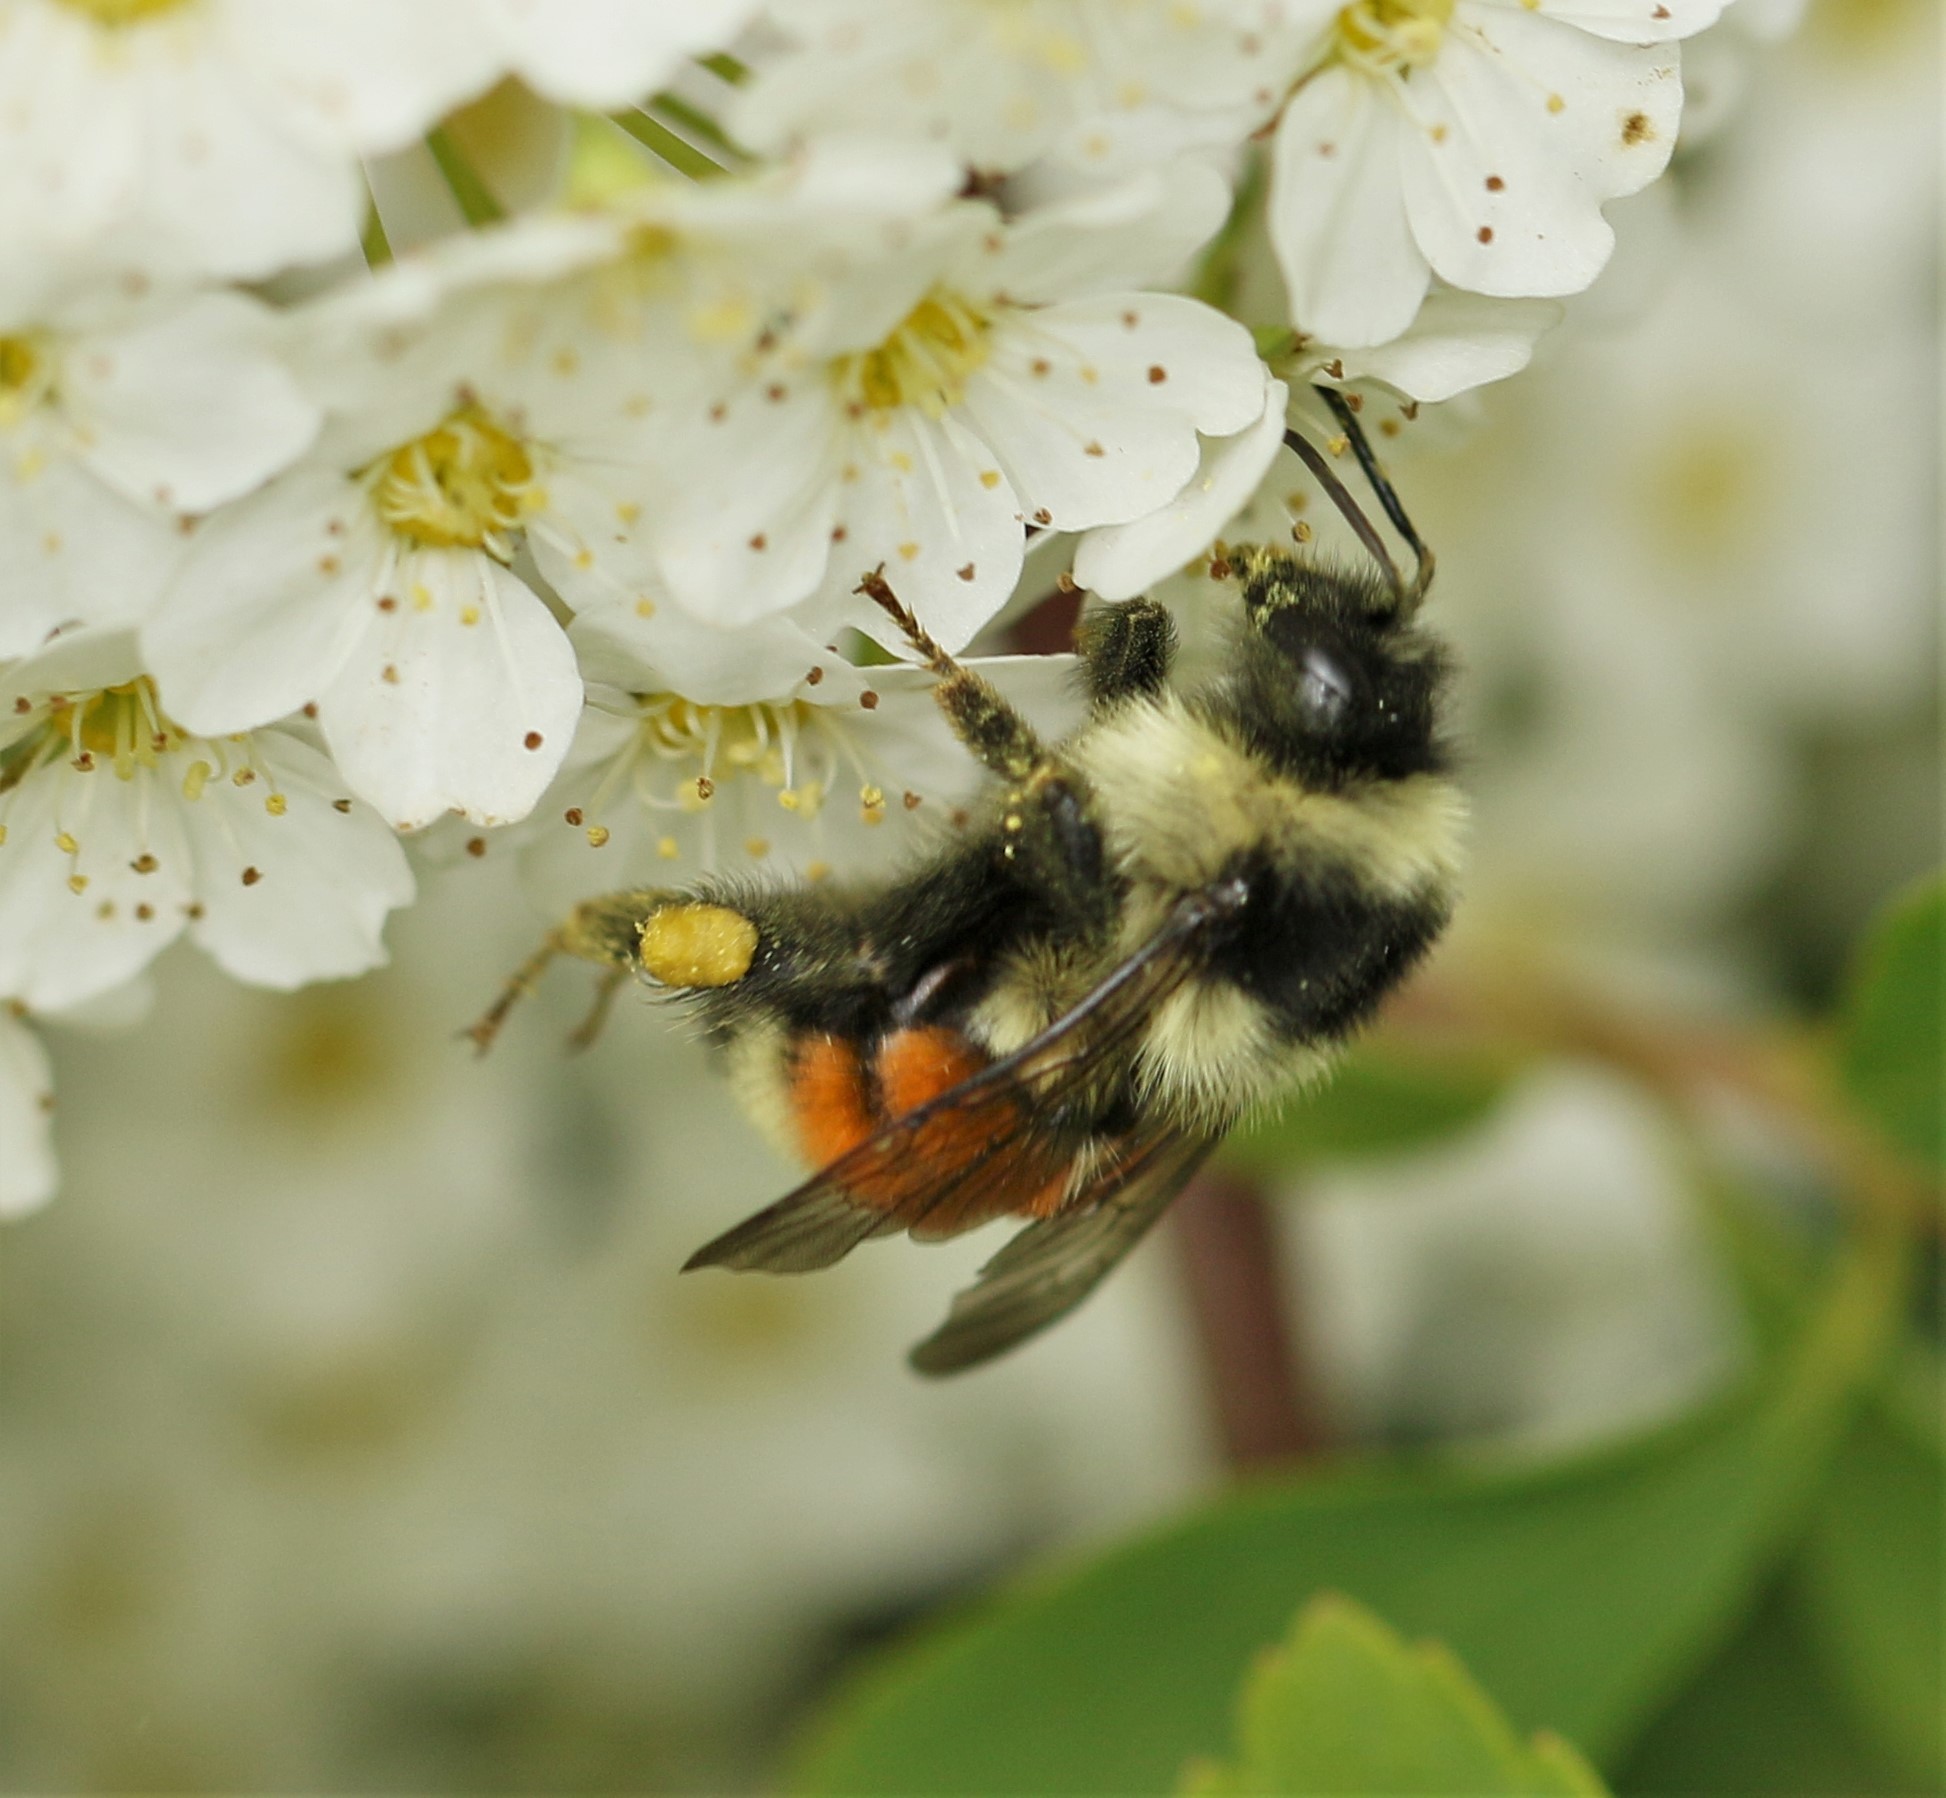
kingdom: Animalia
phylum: Arthropoda
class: Insecta
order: Hymenoptera
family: Apidae
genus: Bombus
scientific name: Bombus ternarius
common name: Tri-colored bumble bee
